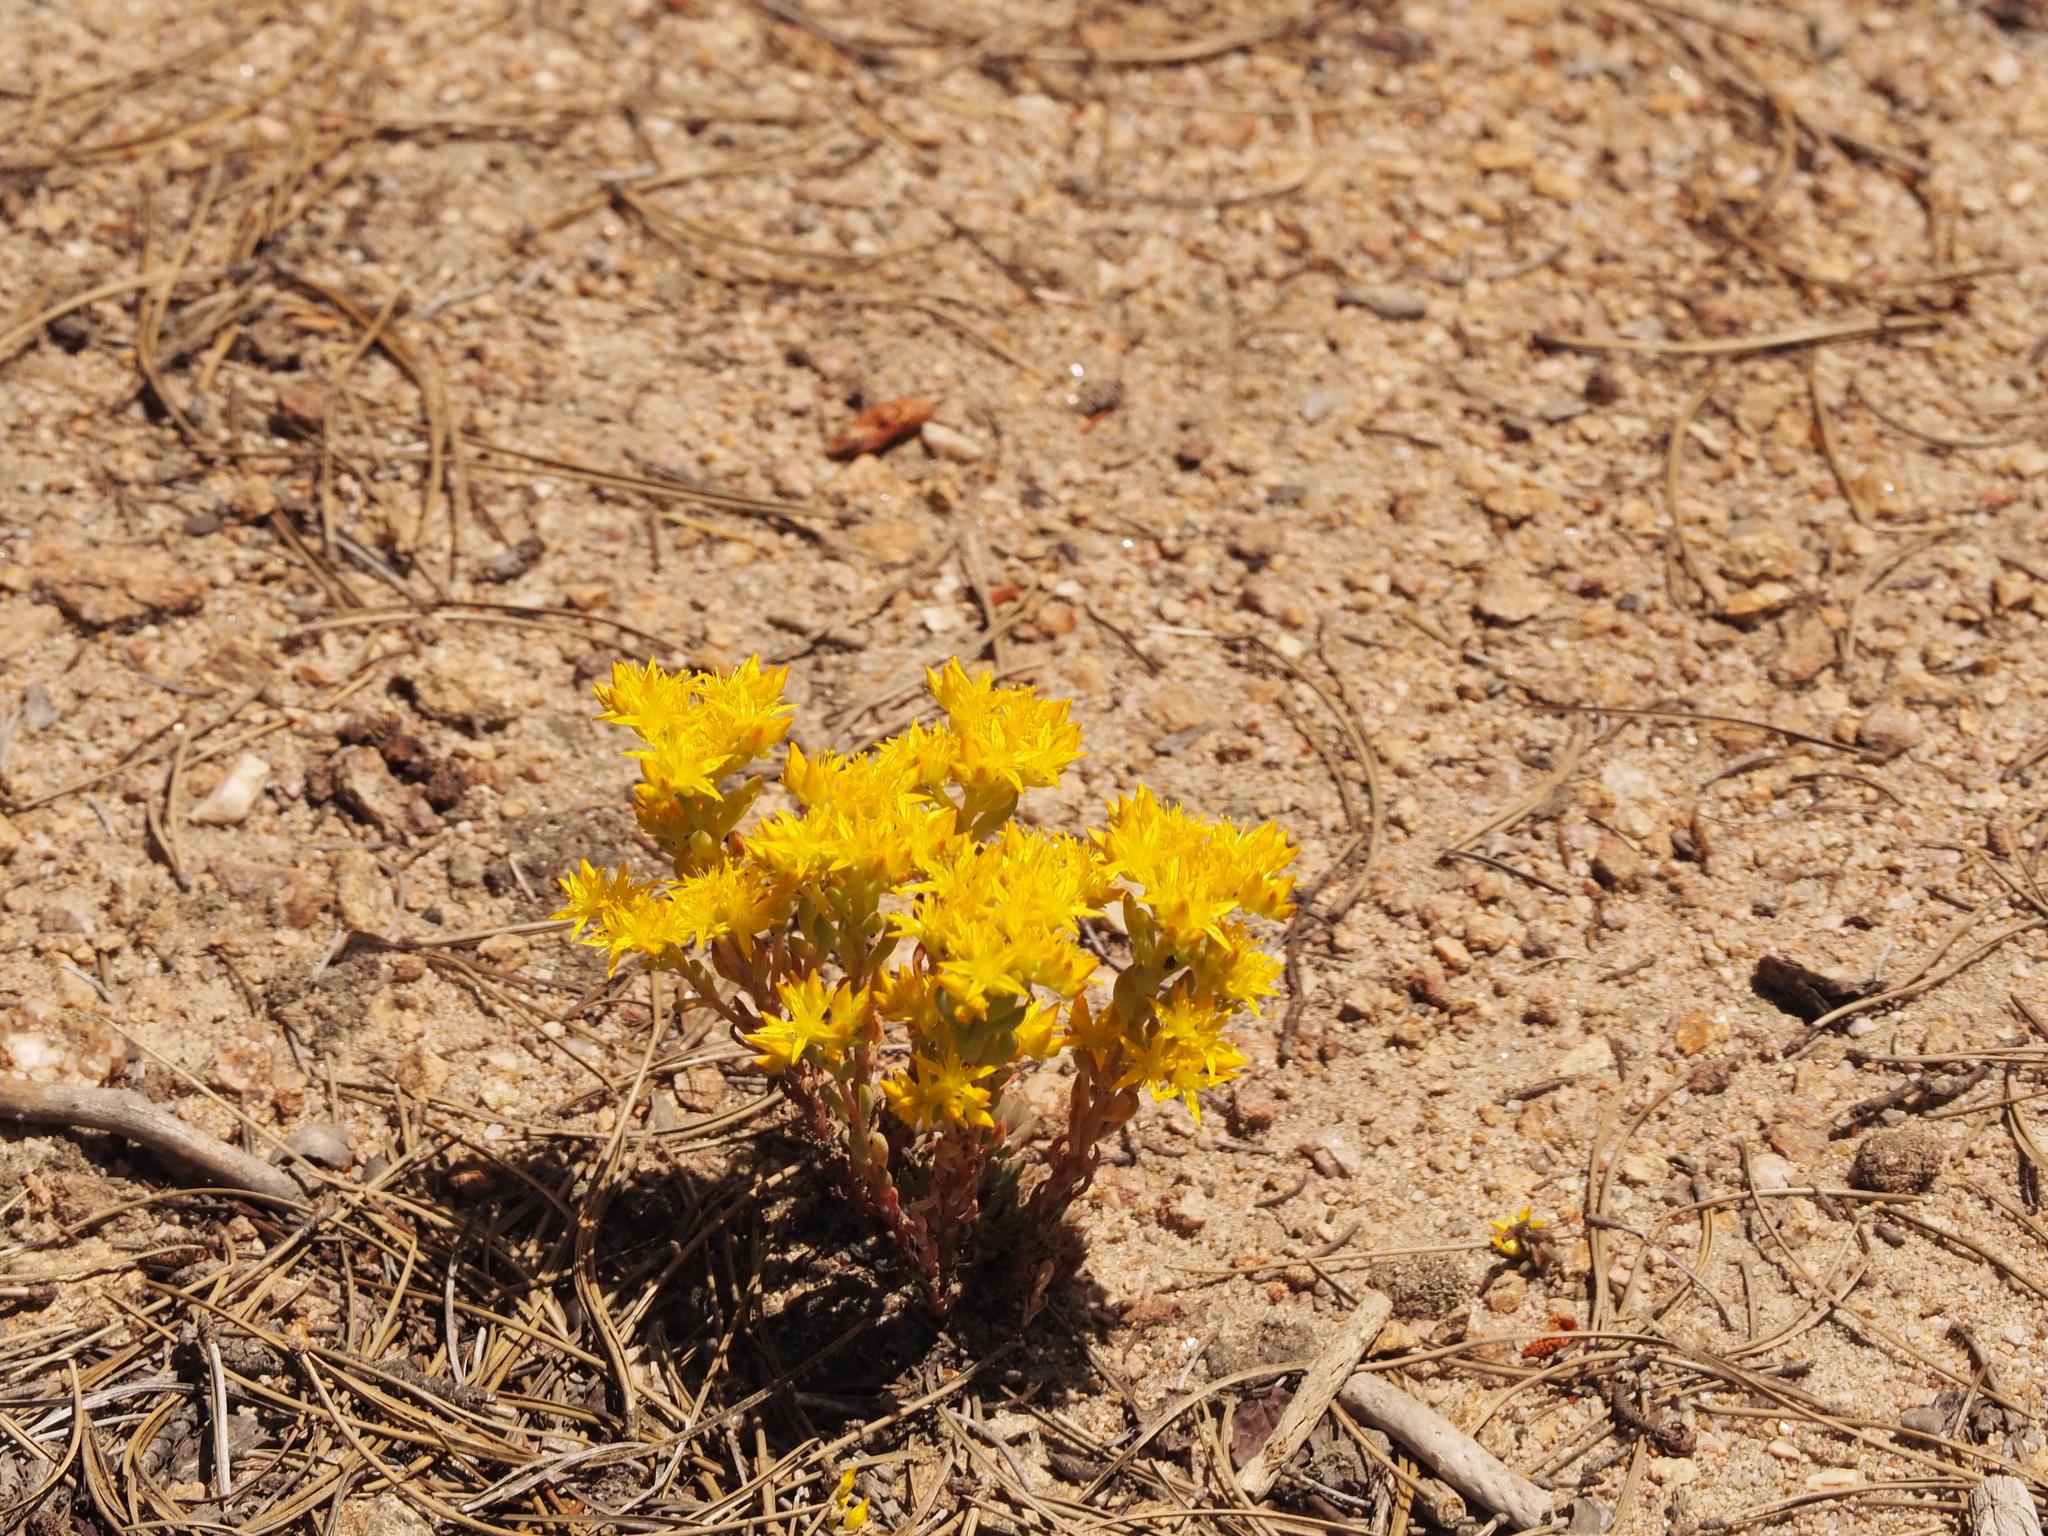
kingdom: Plantae
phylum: Tracheophyta
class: Magnoliopsida
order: Saxifragales
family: Crassulaceae
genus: Sedum
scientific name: Sedum lanceolatum
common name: Common stonecrop
